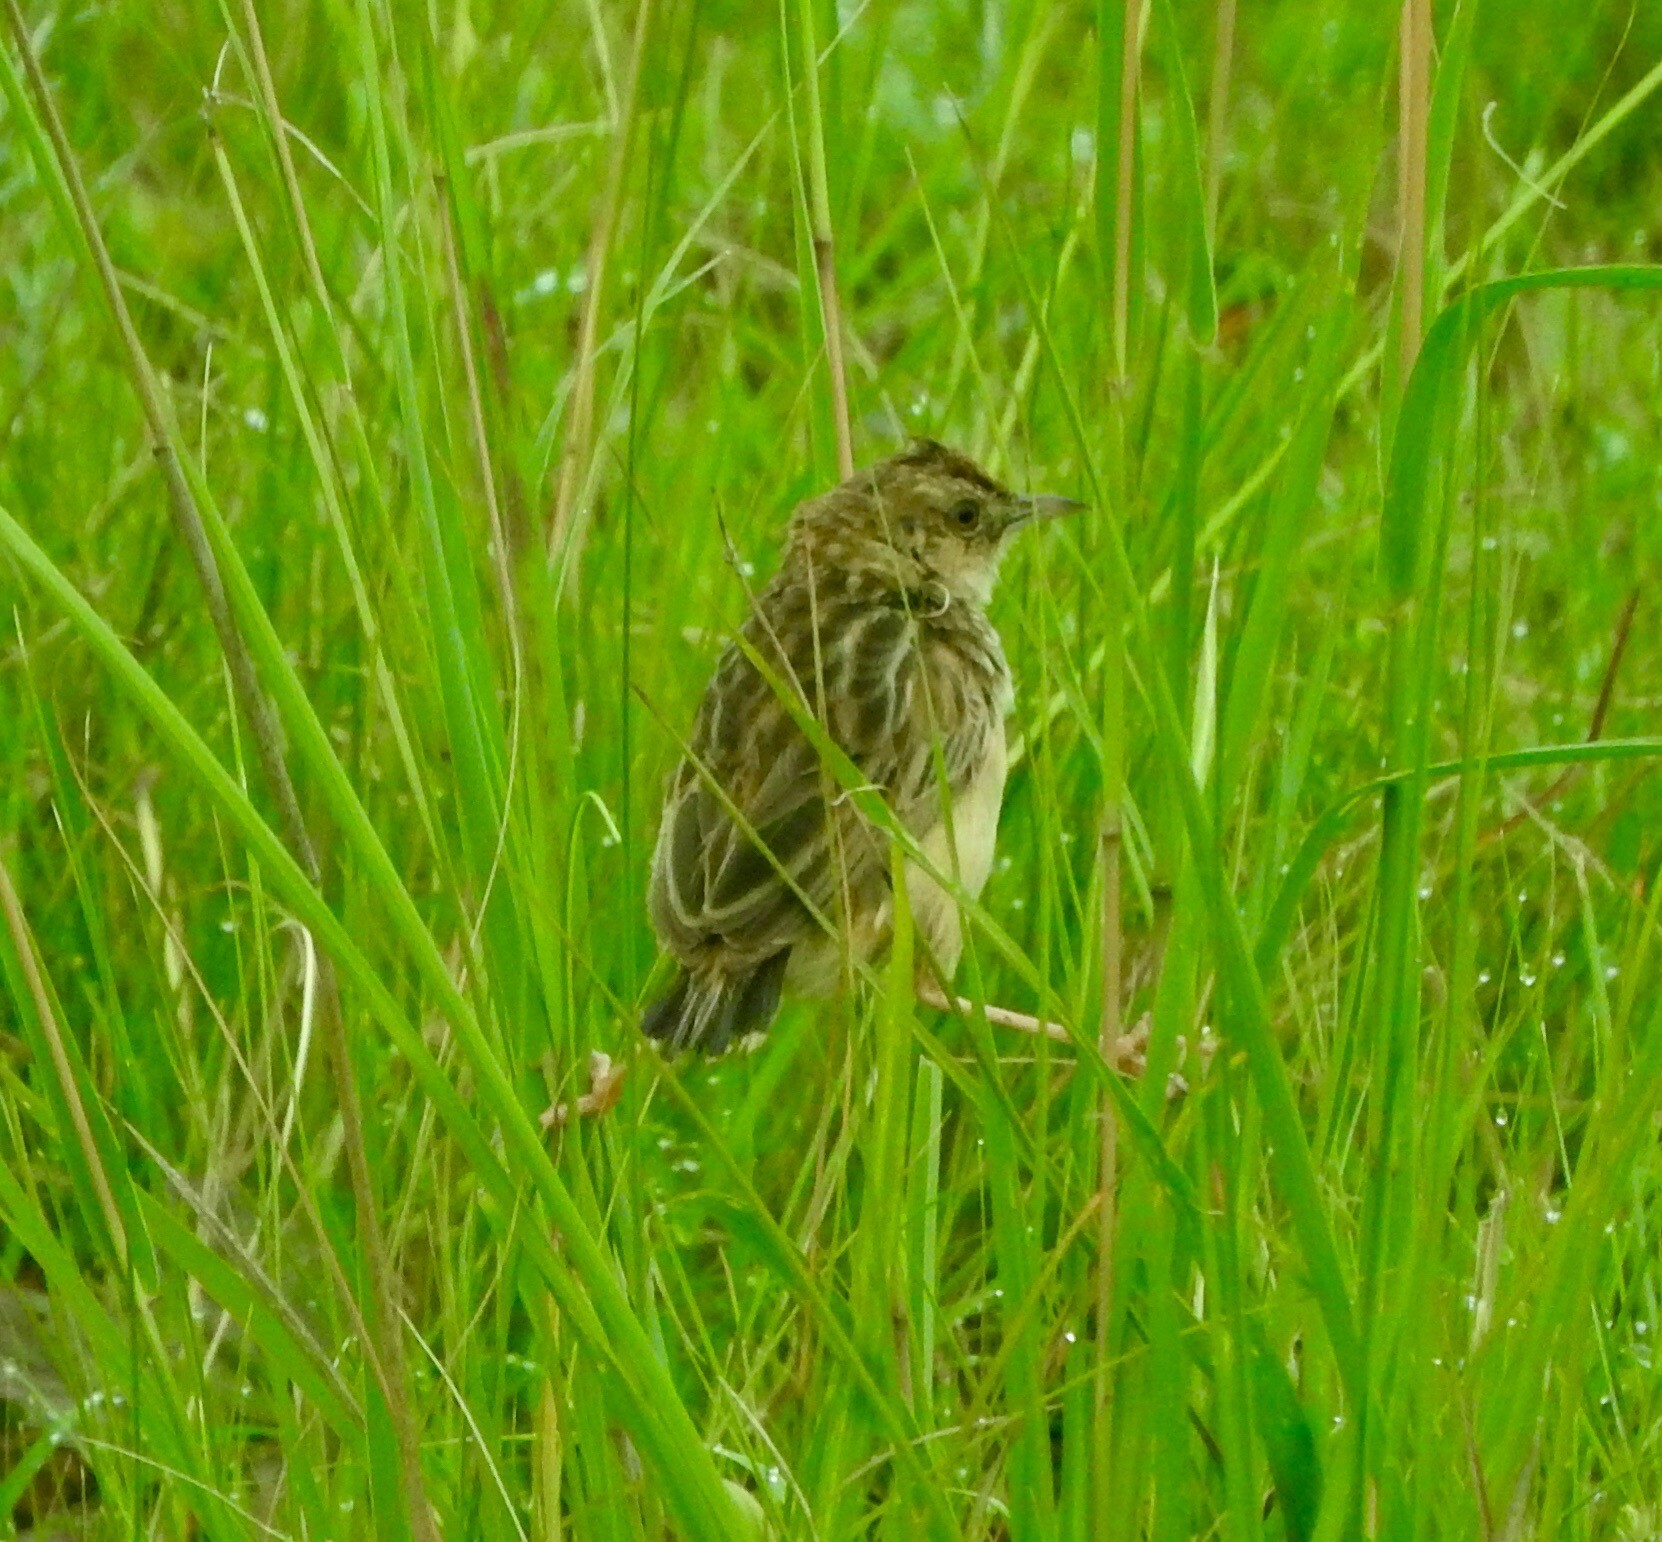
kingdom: Animalia
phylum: Chordata
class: Aves
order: Passeriformes
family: Cisticolidae
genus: Cisticola
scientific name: Cisticola textrix
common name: Cloud cisticola
